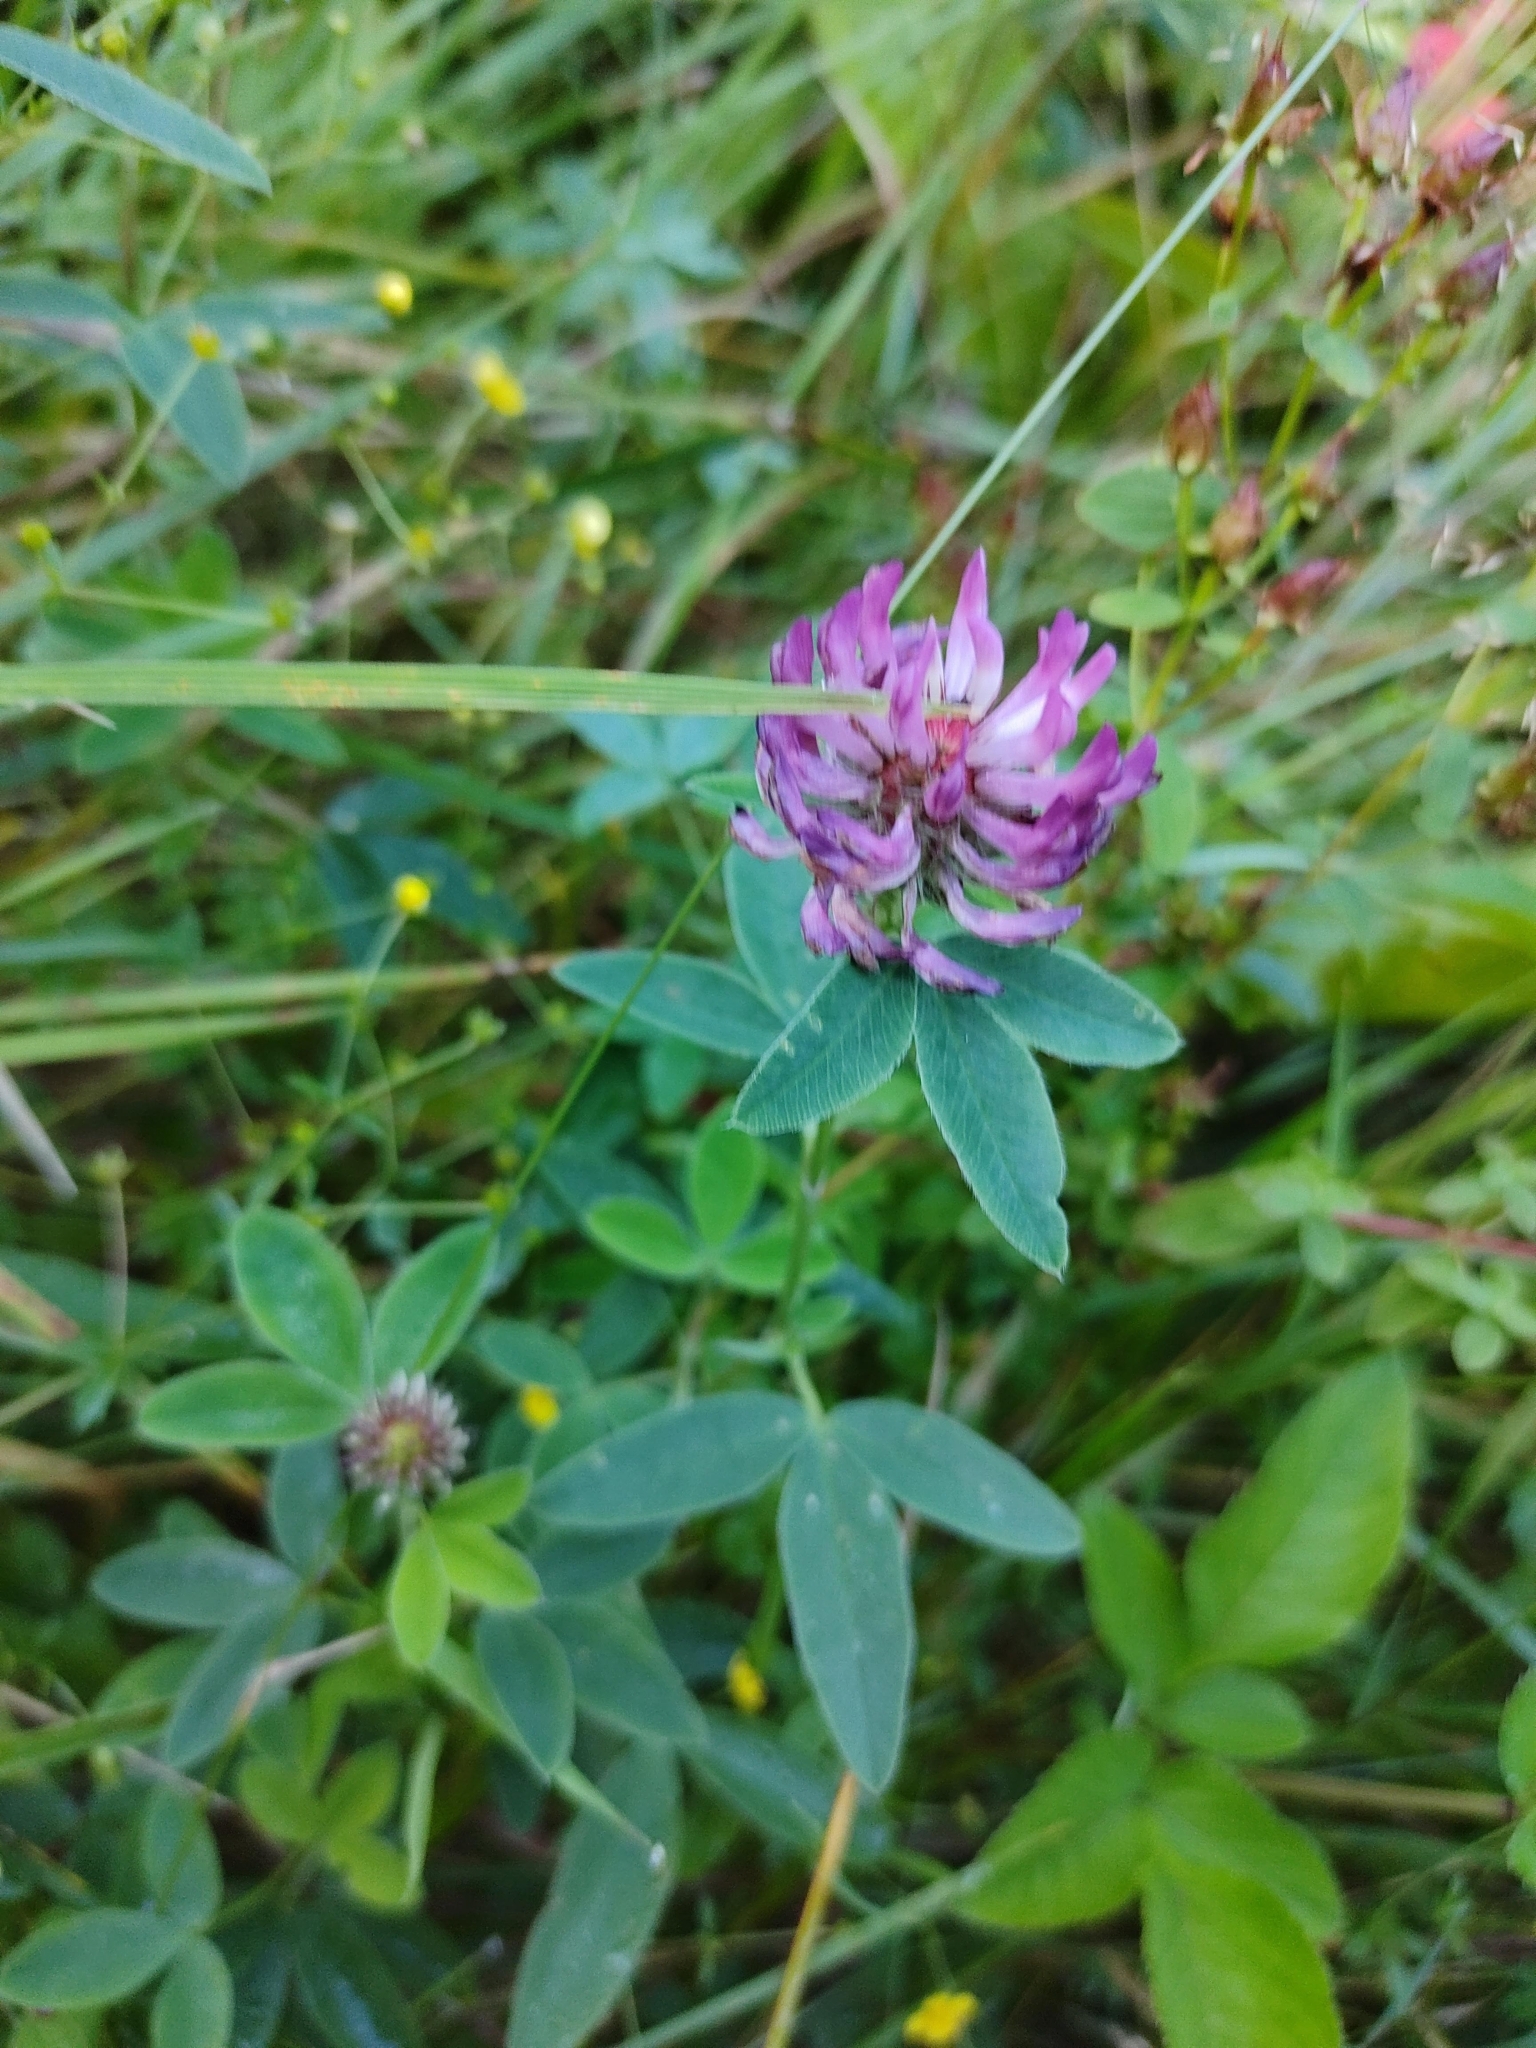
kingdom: Plantae
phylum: Tracheophyta
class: Magnoliopsida
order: Fabales
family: Fabaceae
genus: Trifolium
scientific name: Trifolium medium
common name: Zigzag clover
